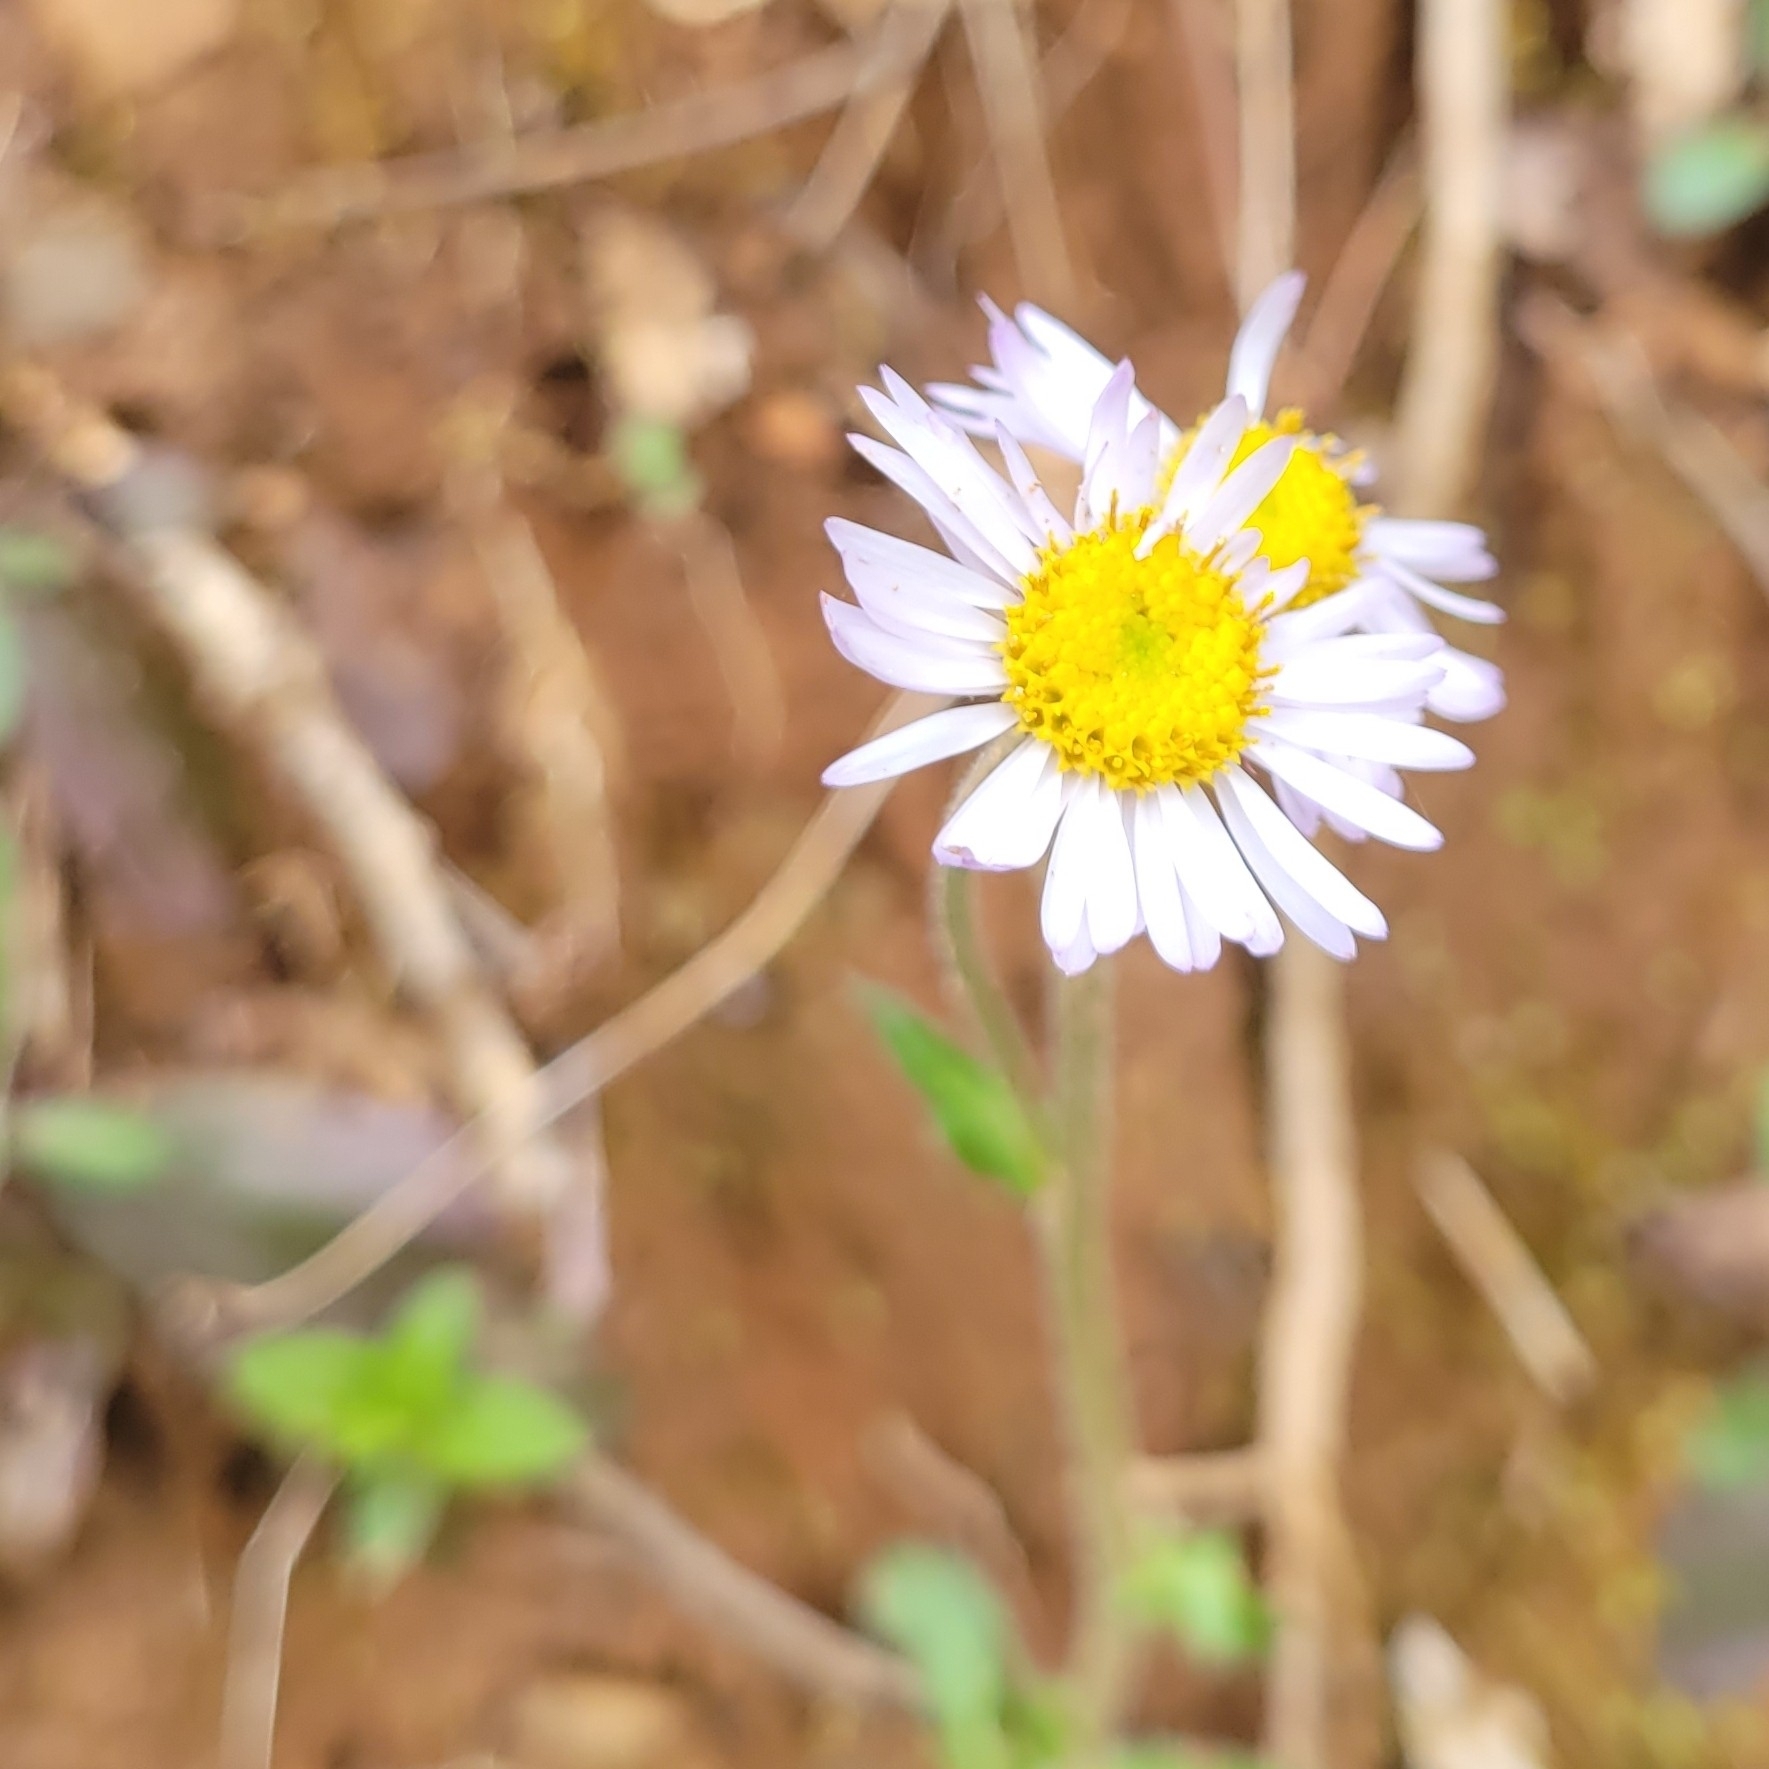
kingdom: Plantae
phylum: Tracheophyta
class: Magnoliopsida
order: Asterales
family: Asteraceae
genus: Erigeron
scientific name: Erigeron pulchellus
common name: Hairy fleabane
